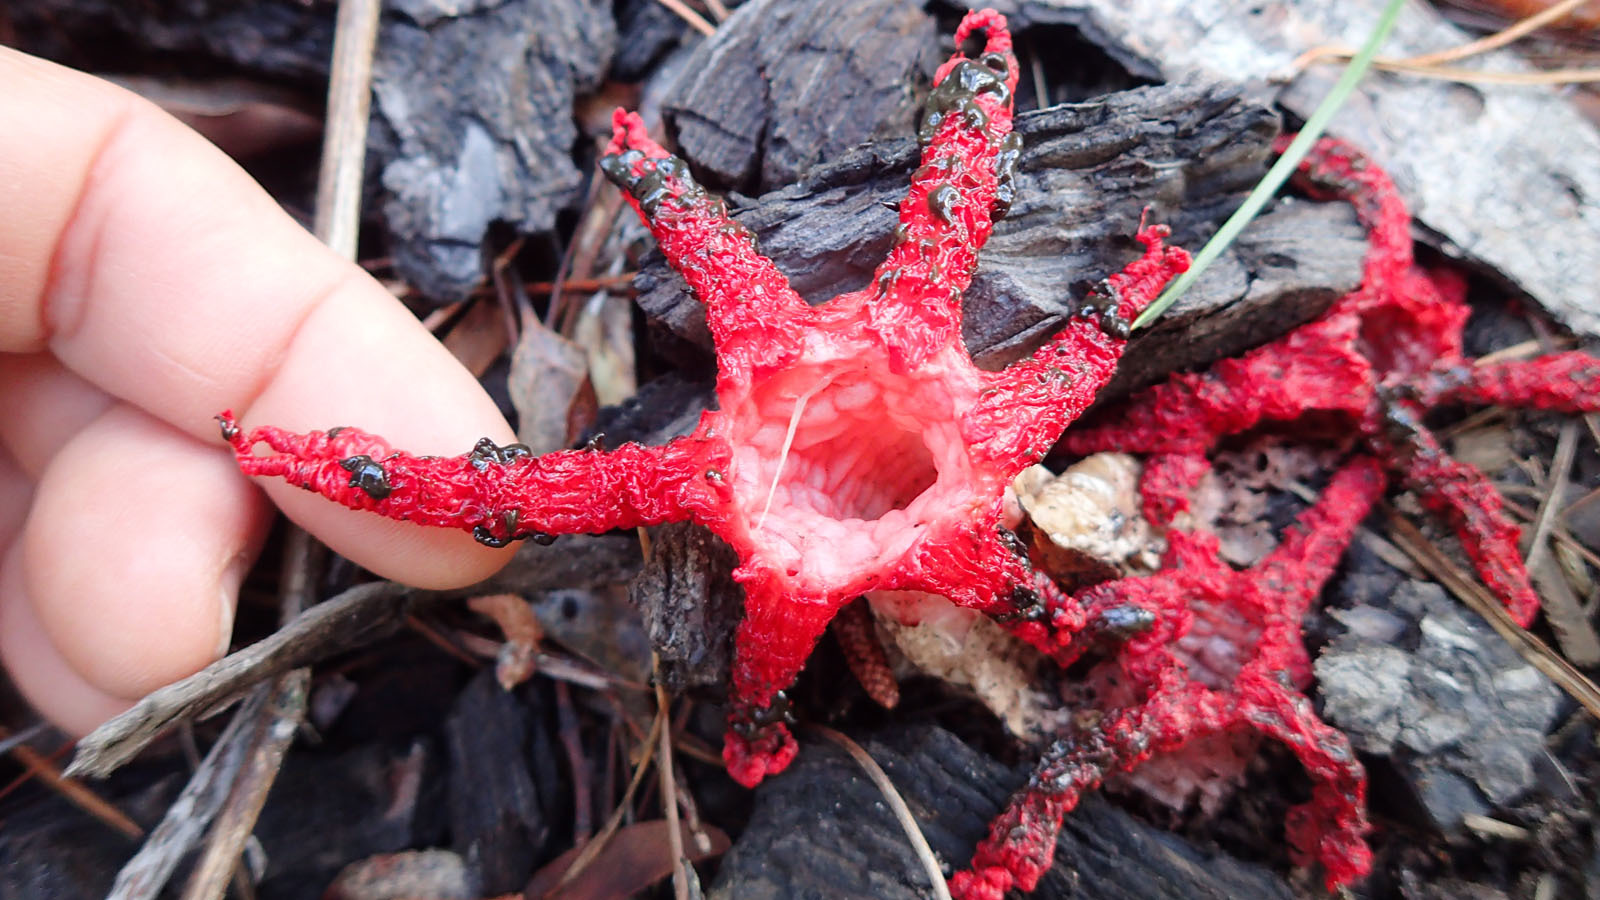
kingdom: Fungi
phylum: Basidiomycota
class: Agaricomycetes
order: Phallales
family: Phallaceae
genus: Clathrus
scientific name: Clathrus archeri
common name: Devil's fingers
